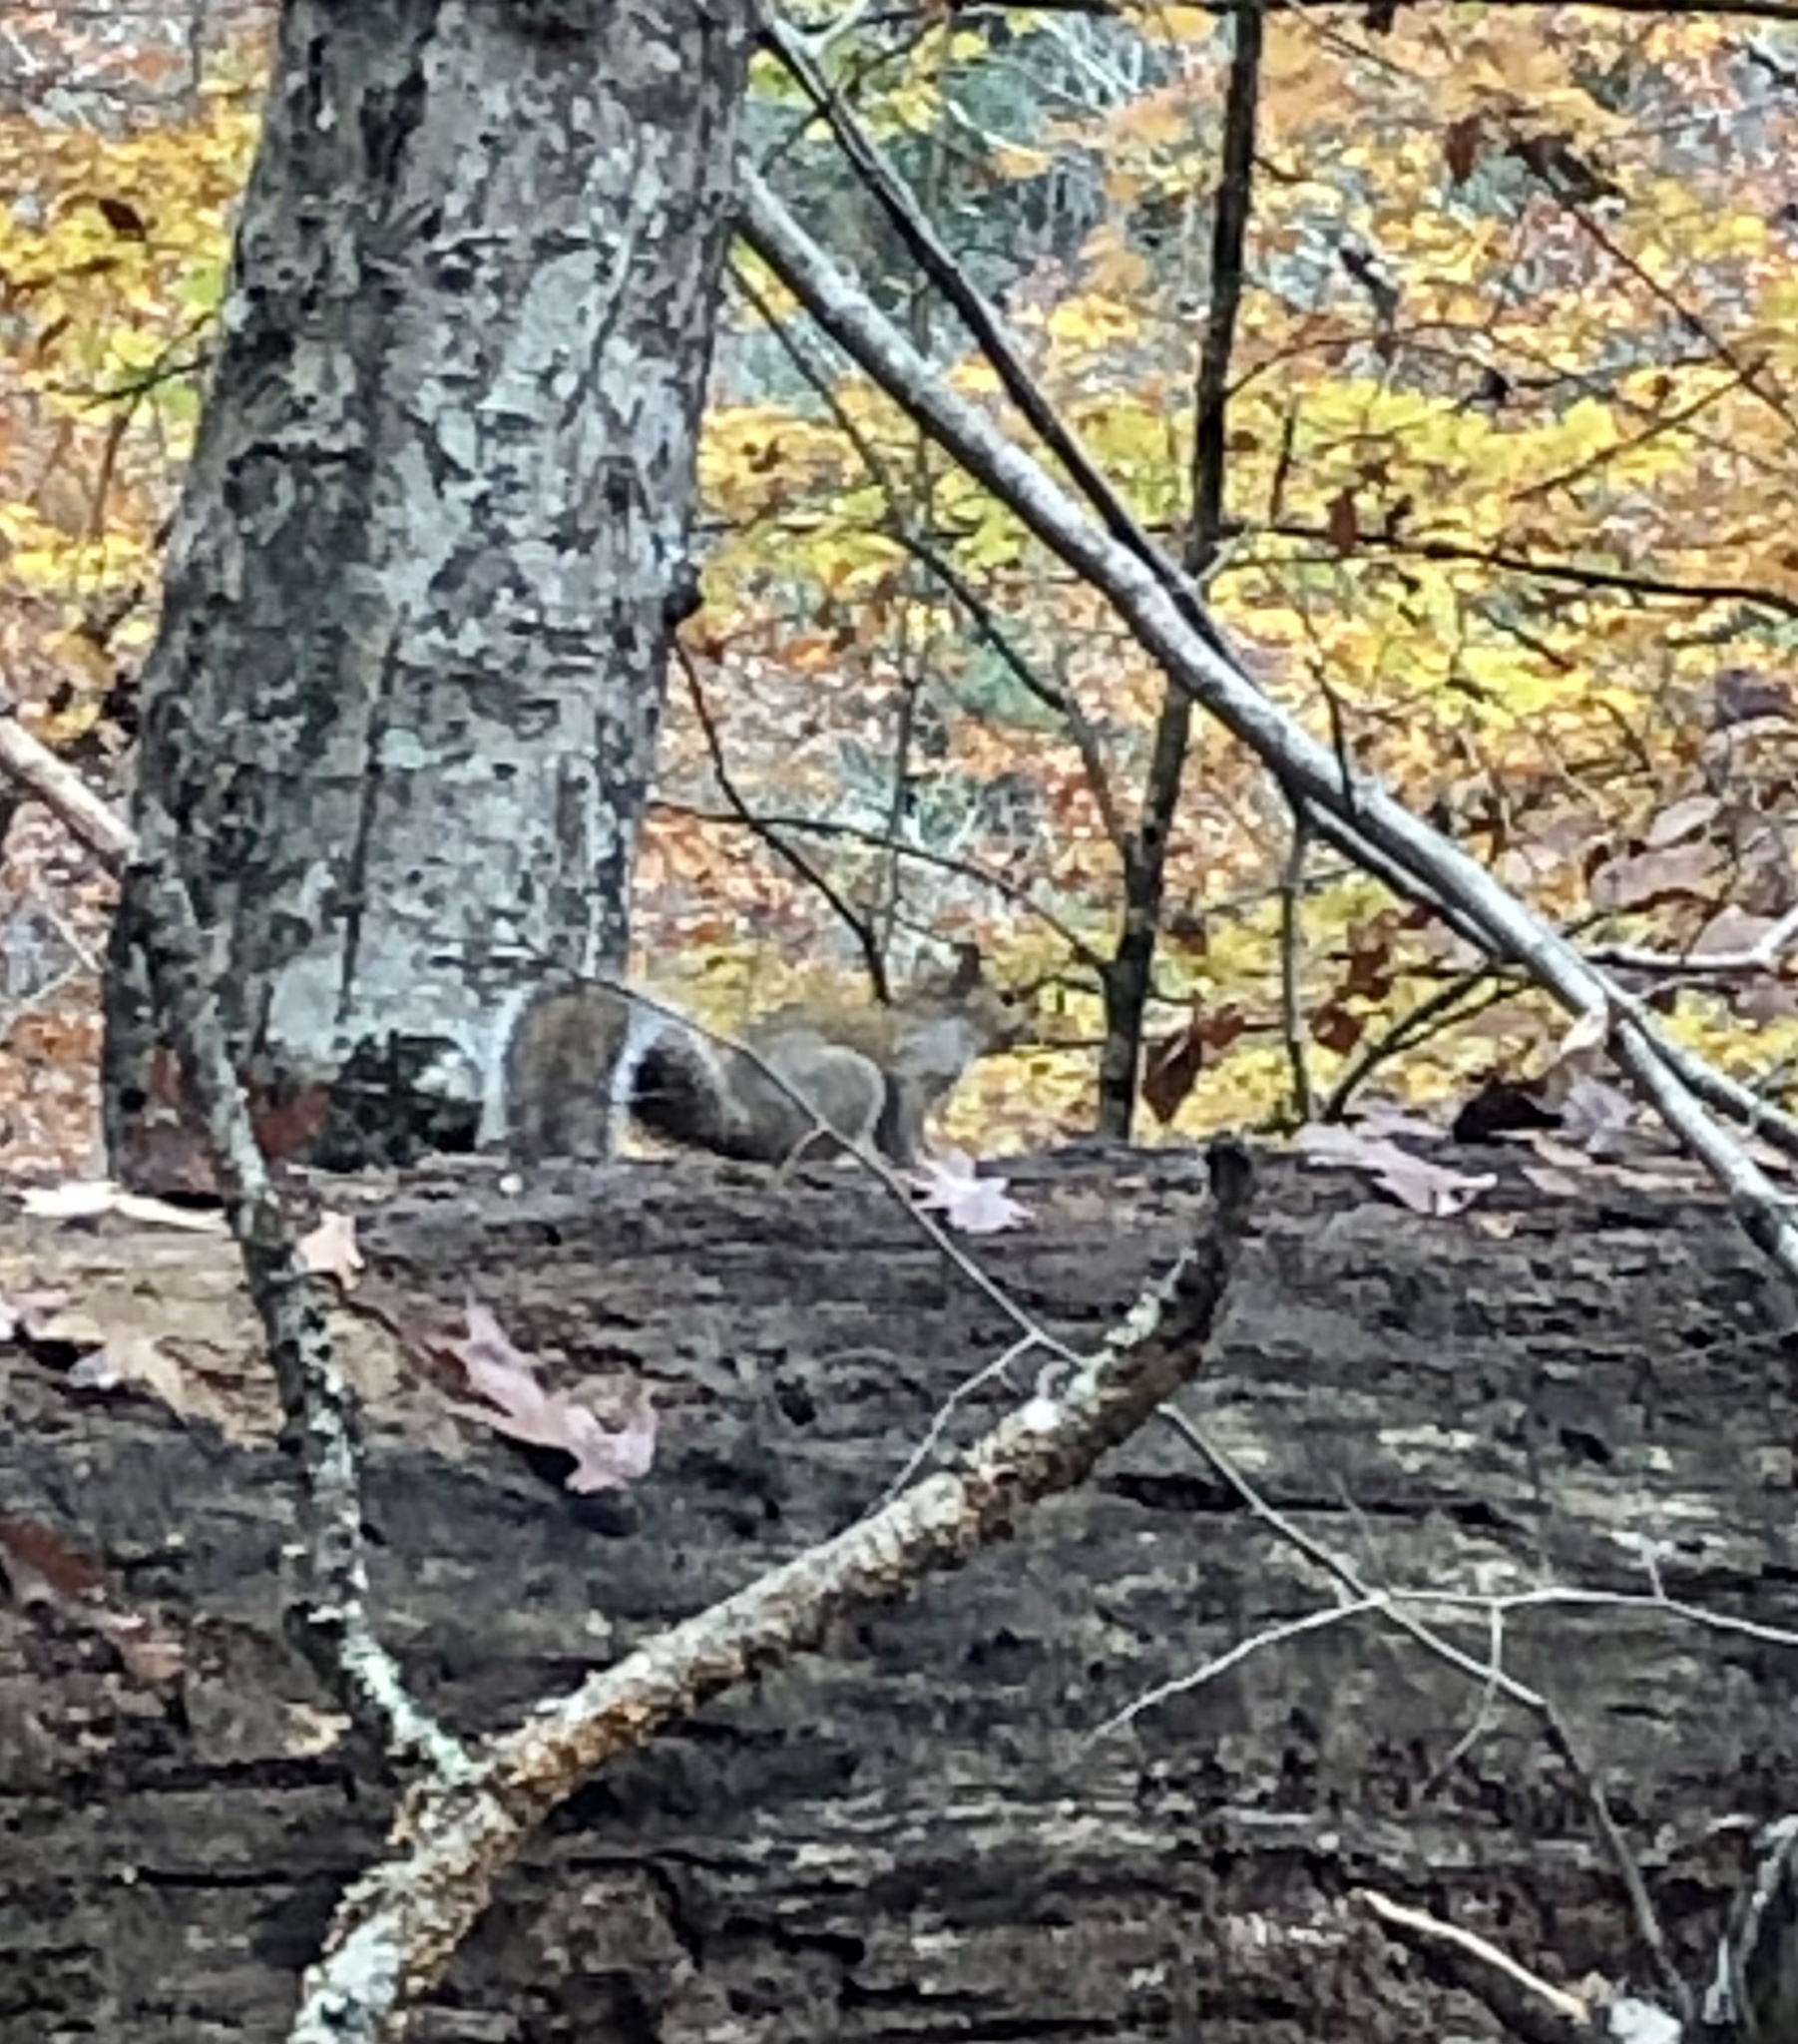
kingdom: Animalia
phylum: Chordata
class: Mammalia
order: Rodentia
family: Sciuridae
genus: Sciurus
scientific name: Sciurus carolinensis
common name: Eastern gray squirrel
